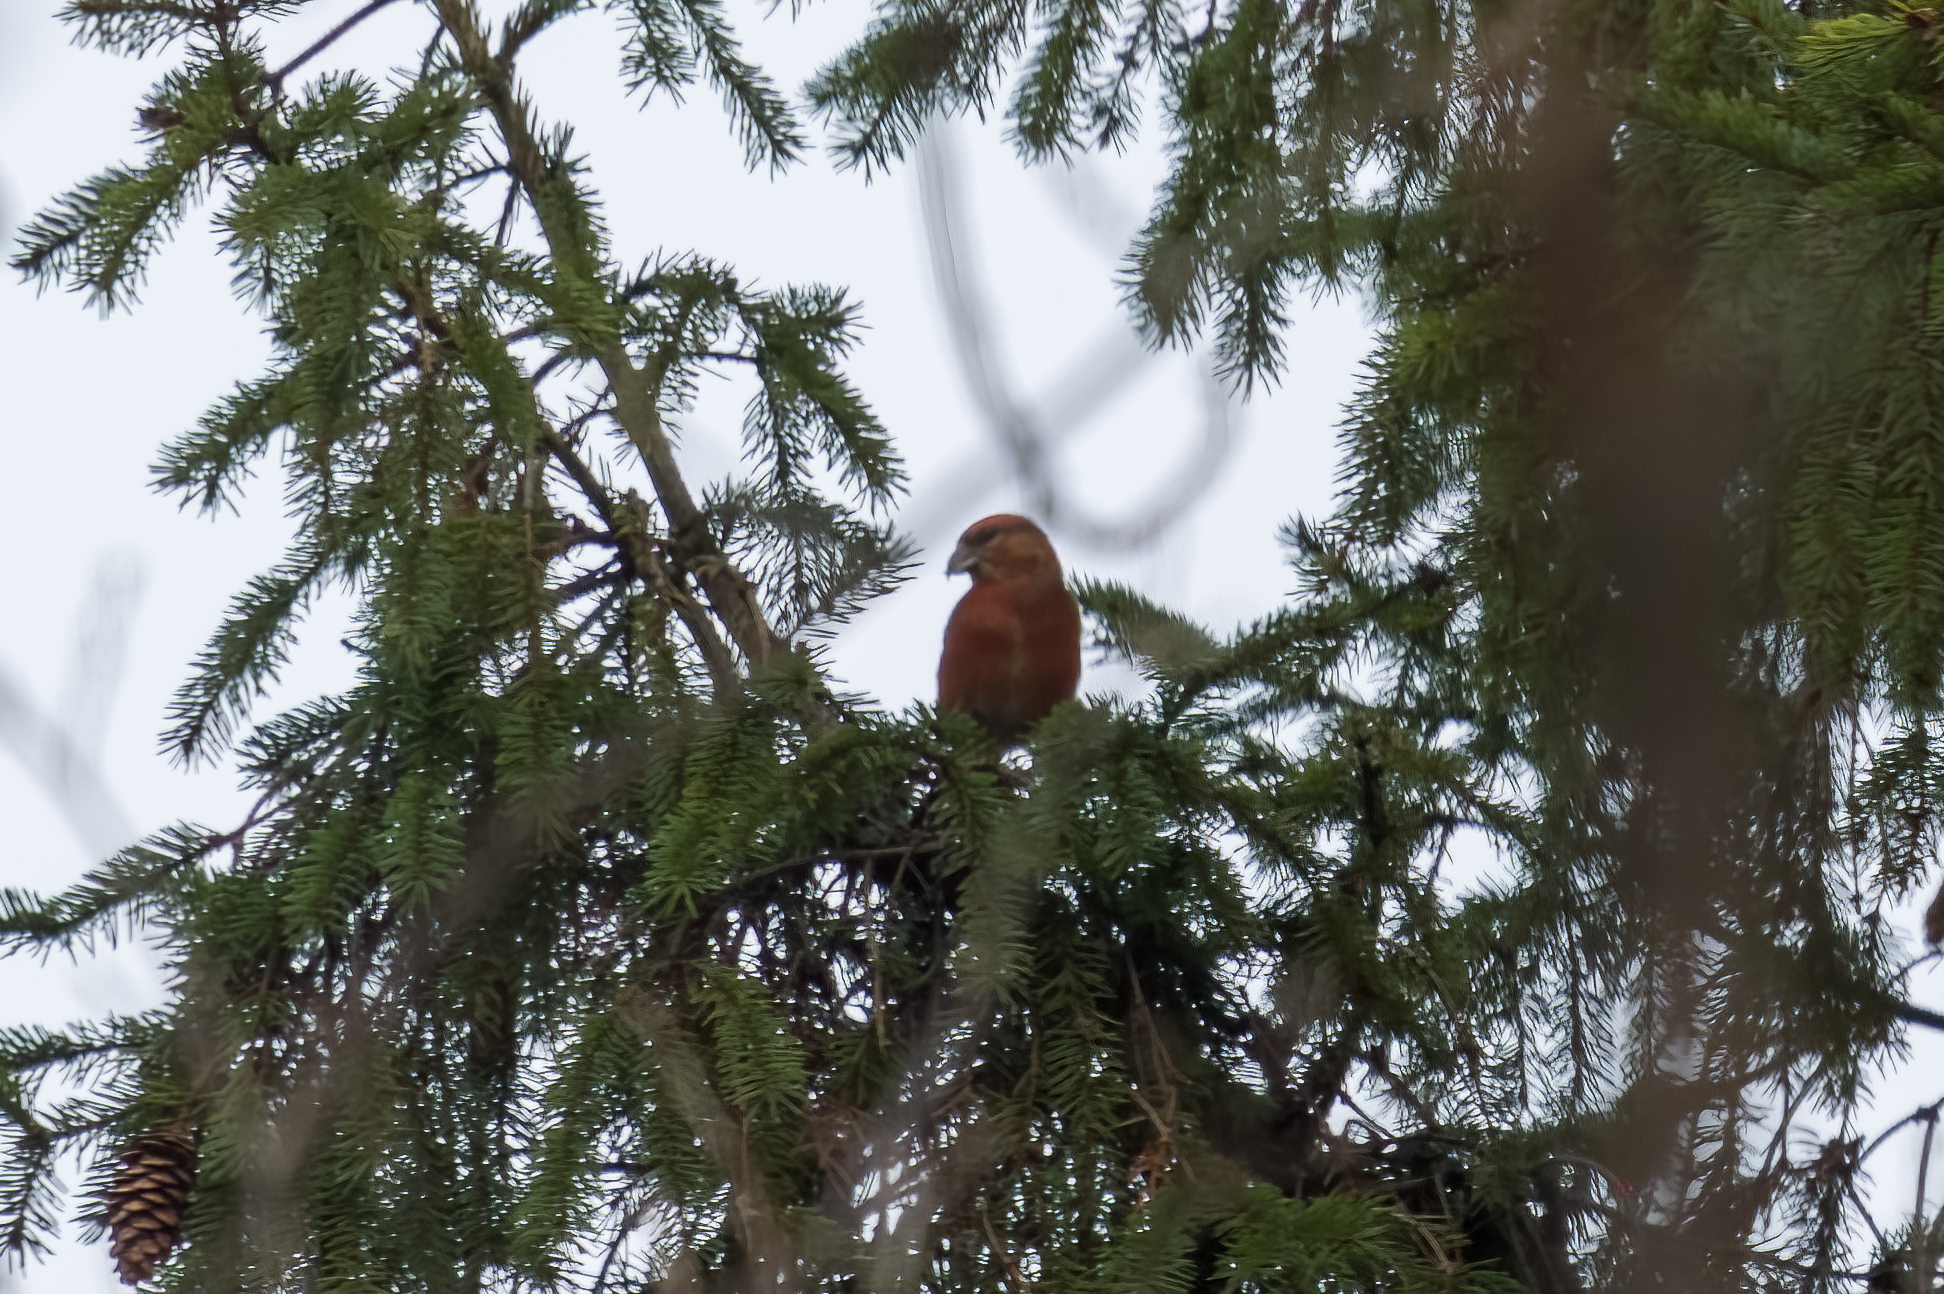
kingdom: Animalia
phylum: Chordata
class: Aves
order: Passeriformes
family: Fringillidae
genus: Loxia
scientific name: Loxia curvirostra
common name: Red crossbill
